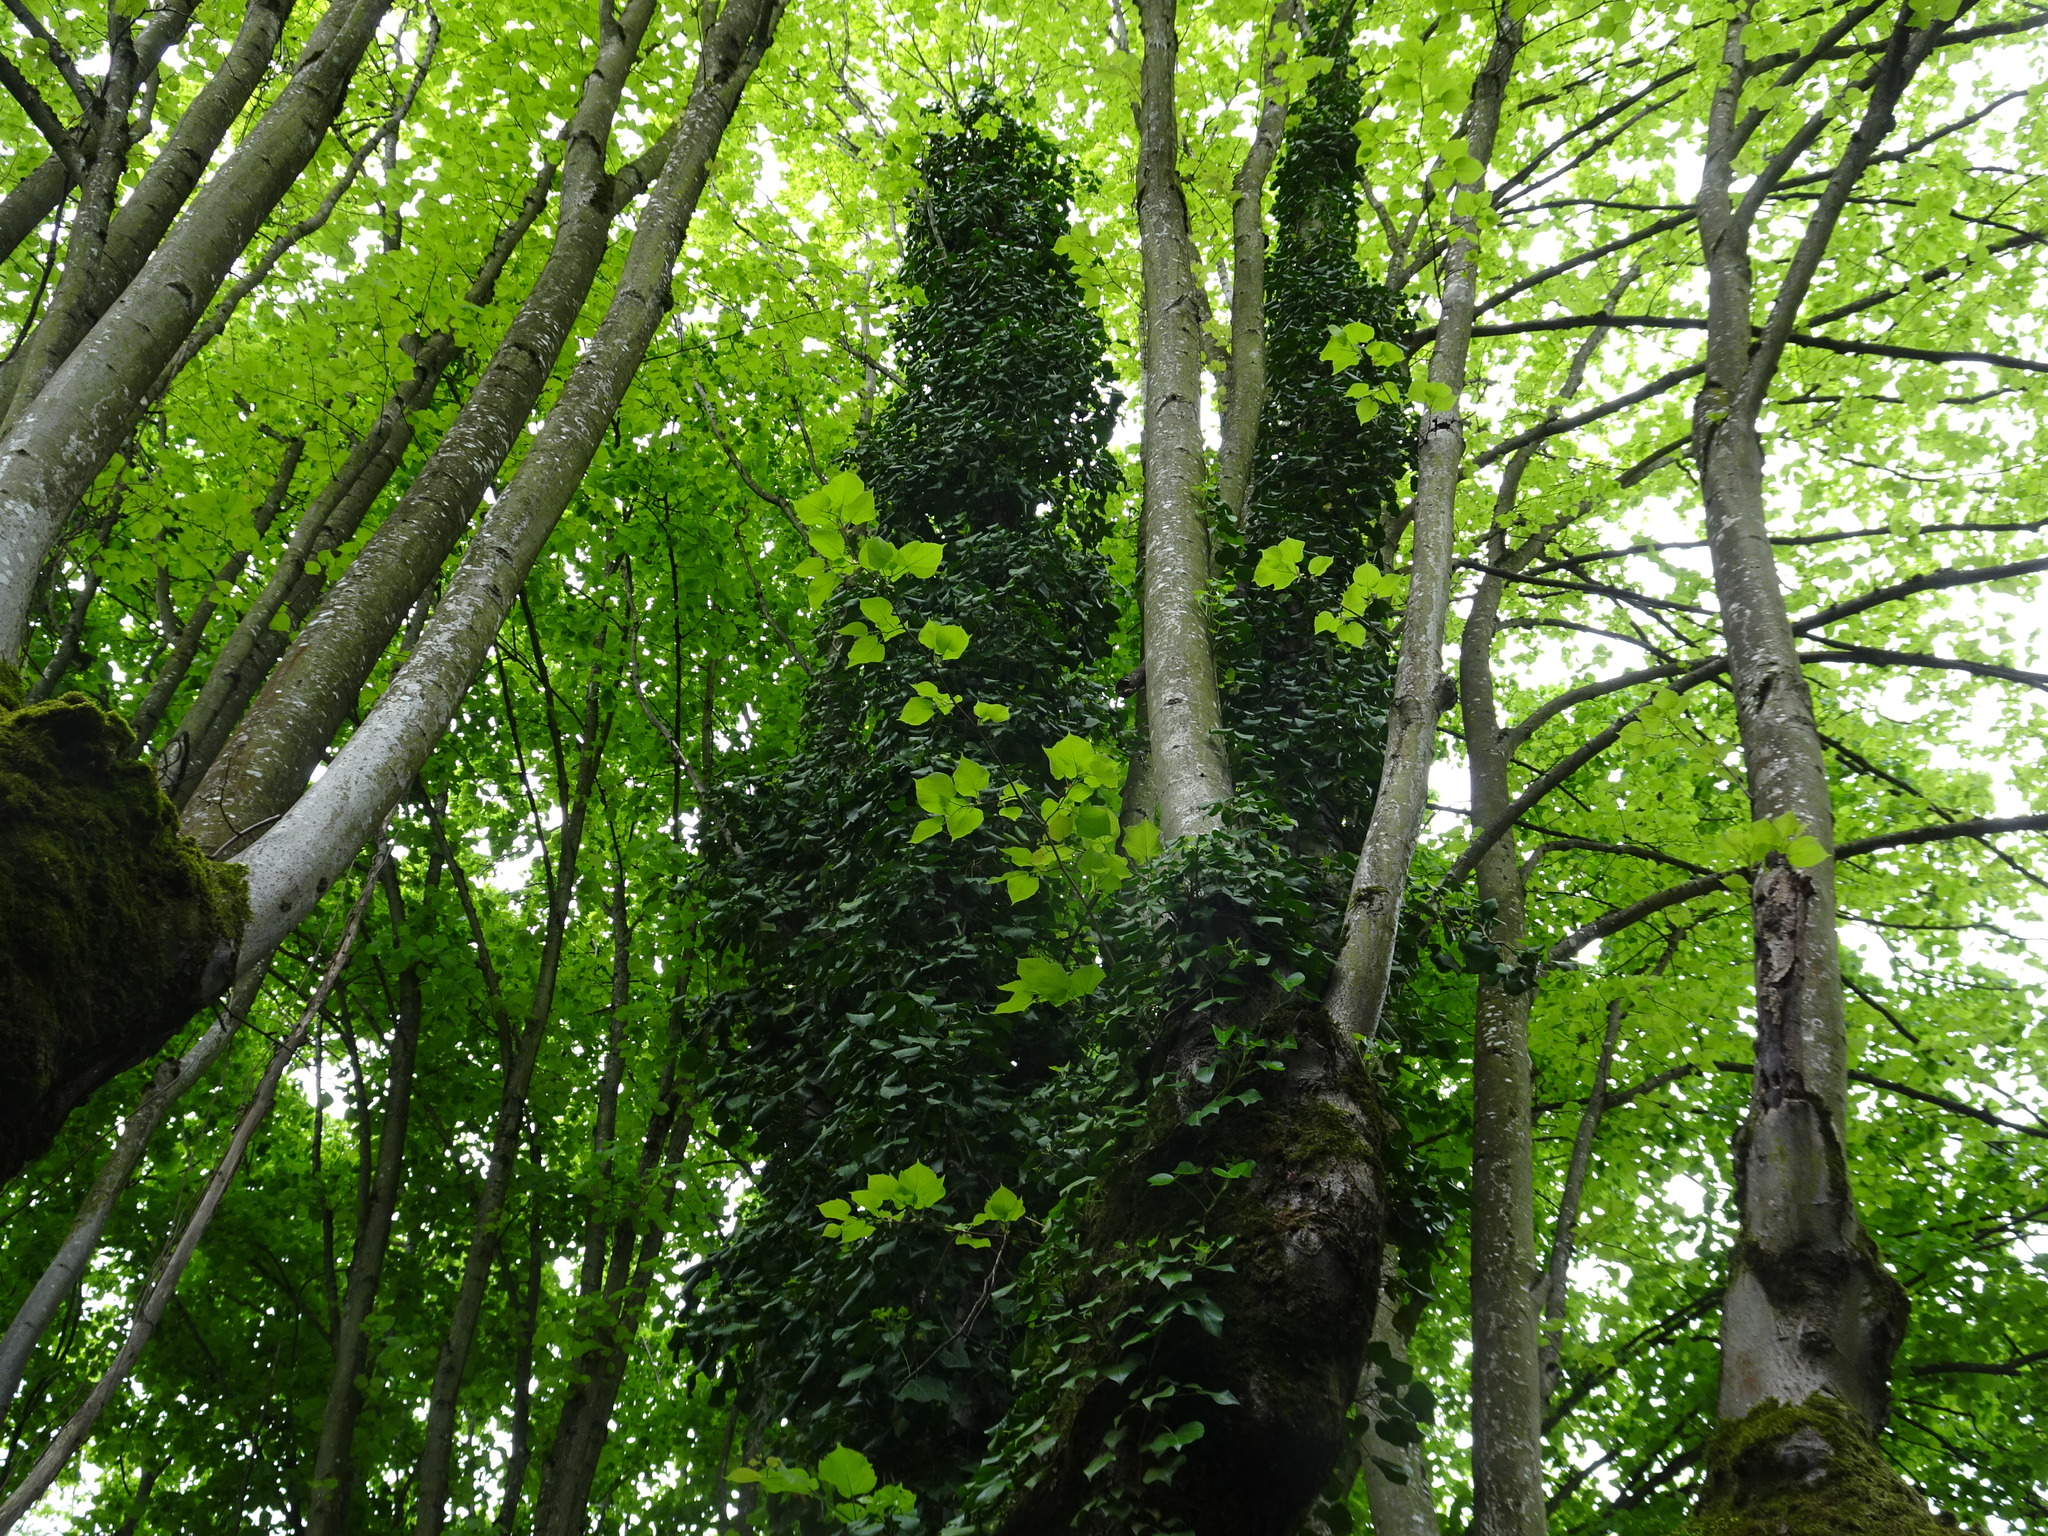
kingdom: Plantae
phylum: Tracheophyta
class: Magnoliopsida
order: Apiales
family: Araliaceae
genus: Hedera
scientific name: Hedera helix
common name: Ivy
